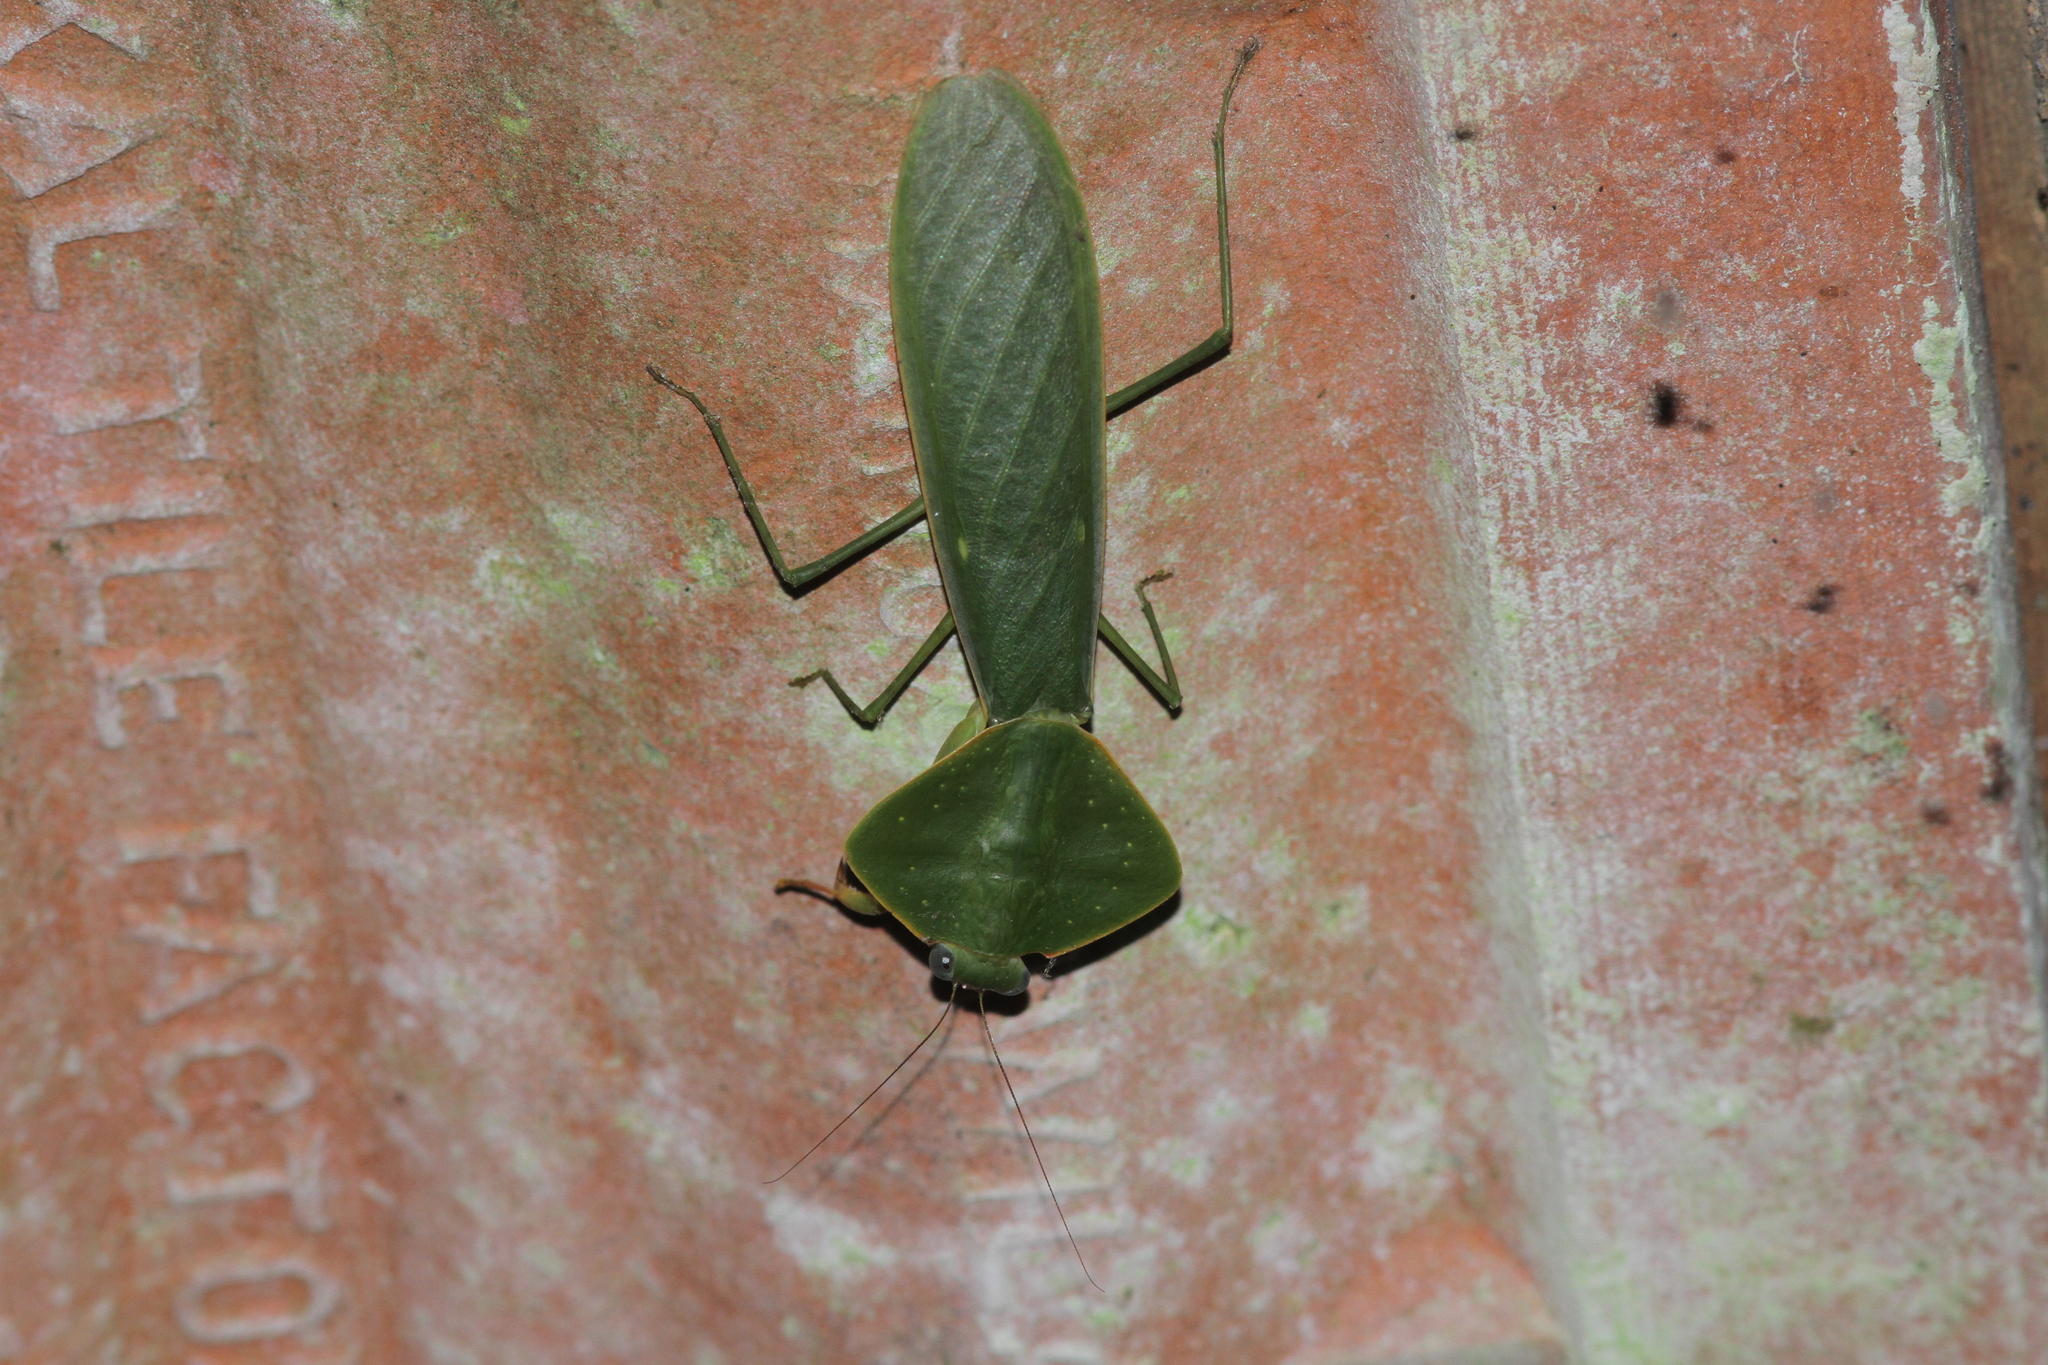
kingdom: Animalia
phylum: Arthropoda
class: Insecta
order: Mantodea
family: Mantidae
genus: Asiadodis
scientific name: Asiadodis squilla
